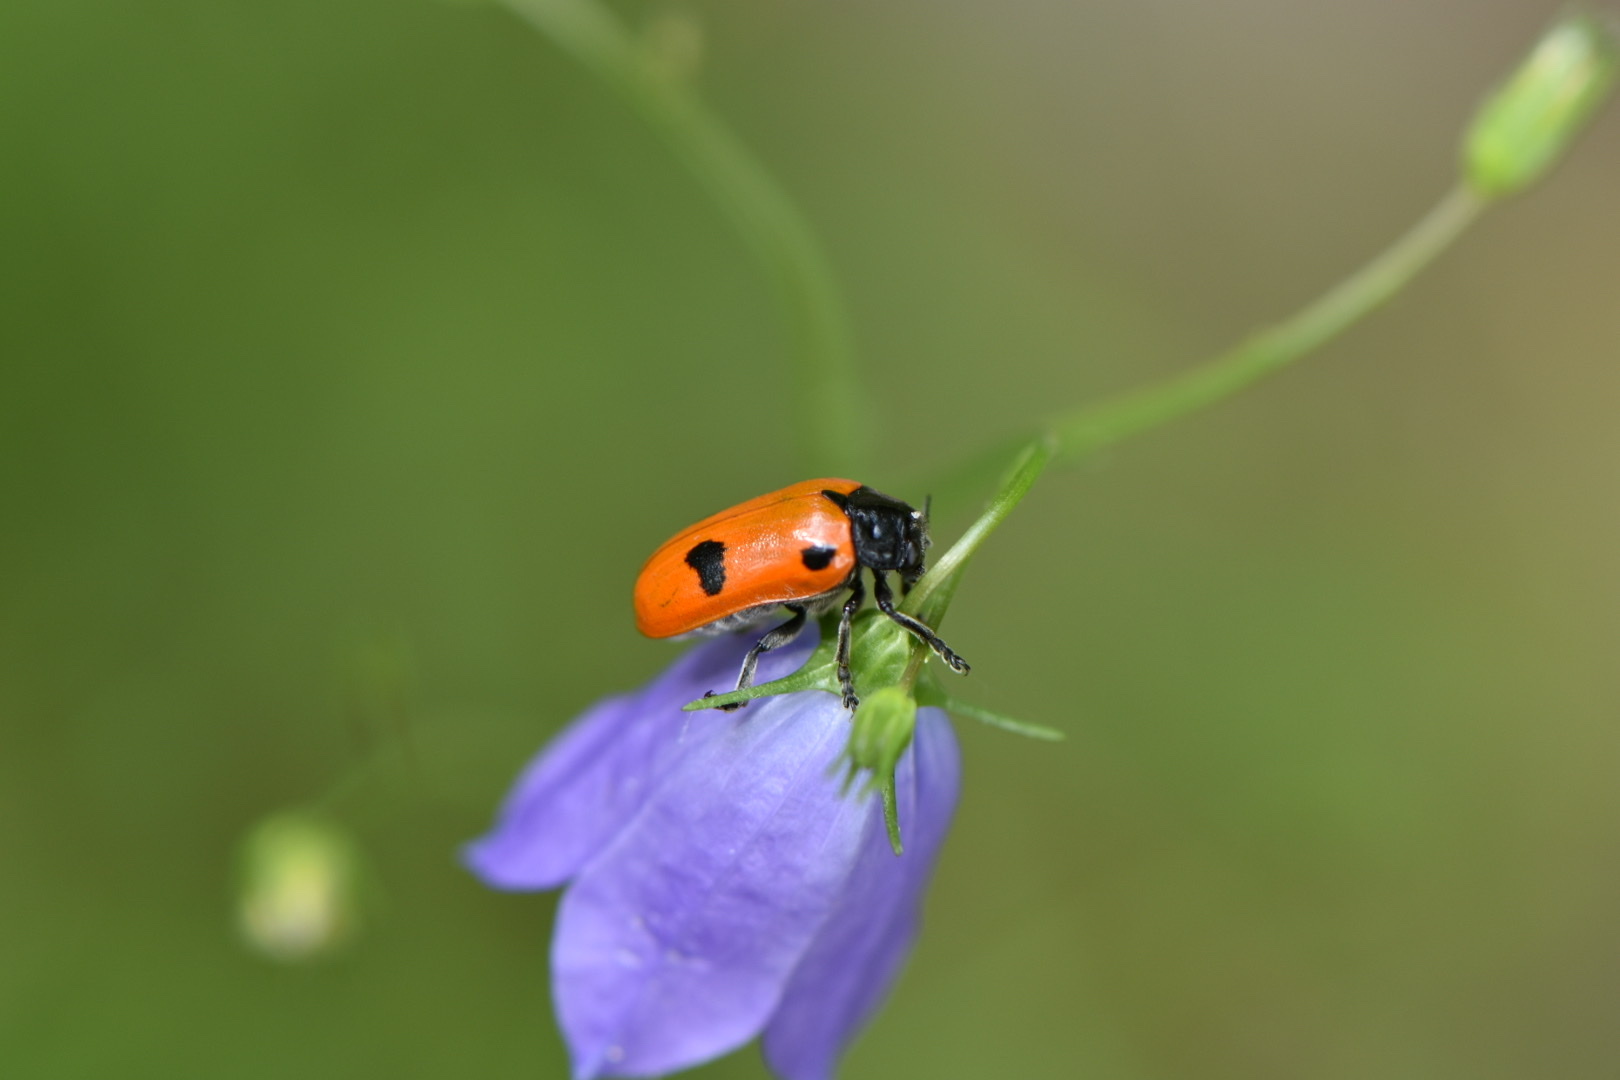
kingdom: Animalia
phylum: Arthropoda
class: Insecta
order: Coleoptera
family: Chrysomelidae
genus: Clytra
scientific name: Clytra quadripunctata
